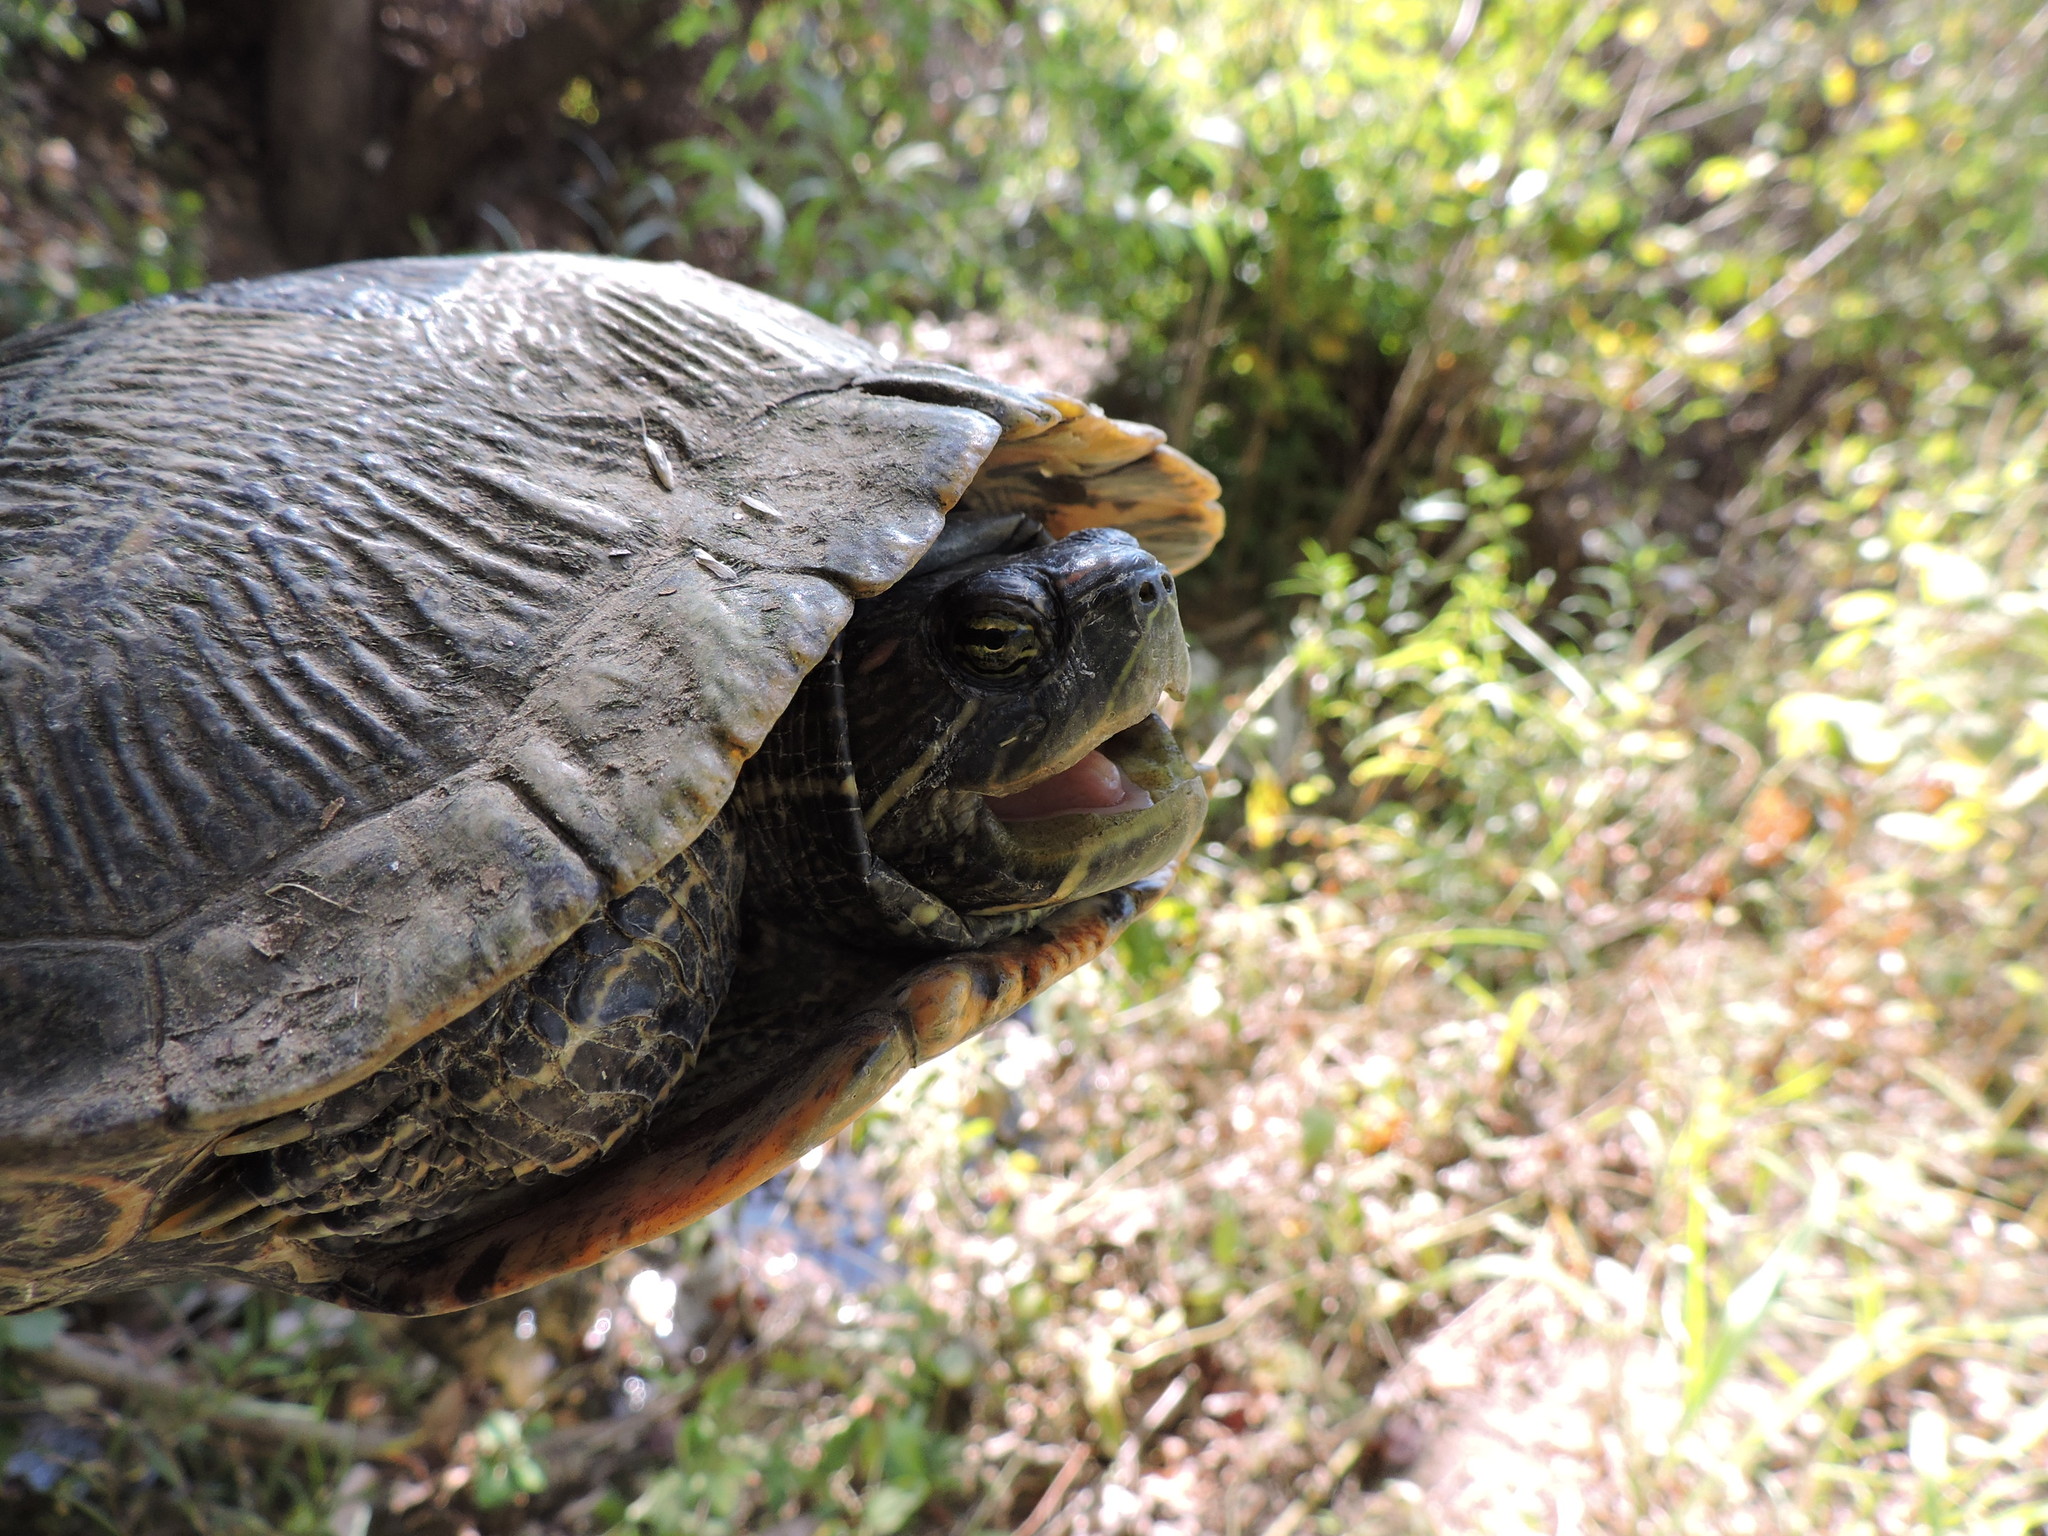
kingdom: Animalia
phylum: Chordata
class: Testudines
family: Emydidae
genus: Trachemys
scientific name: Trachemys scripta
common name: Slider
